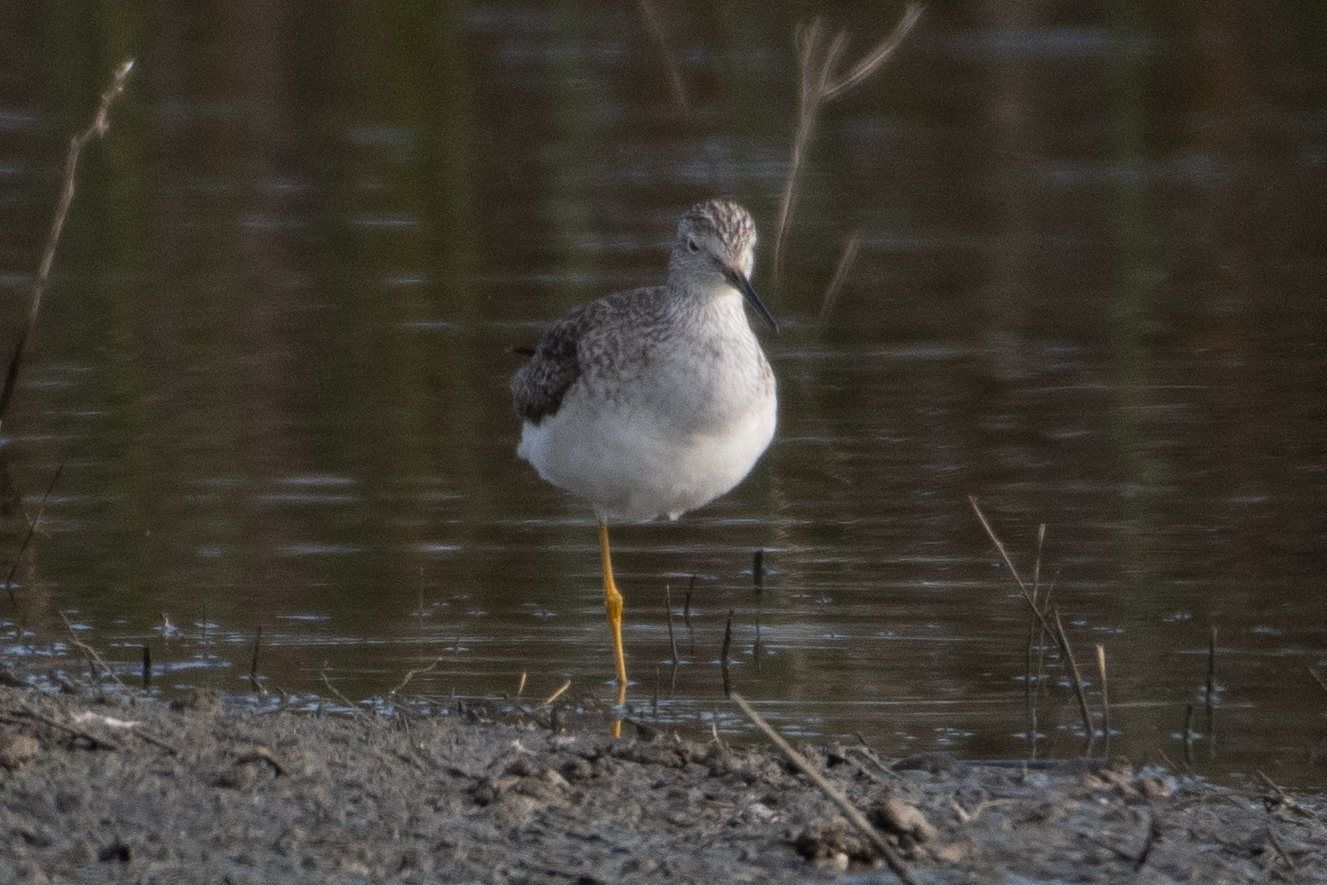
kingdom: Animalia
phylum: Chordata
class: Aves
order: Charadriiformes
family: Scolopacidae
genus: Tringa
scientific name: Tringa melanoleuca
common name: Greater yellowlegs
